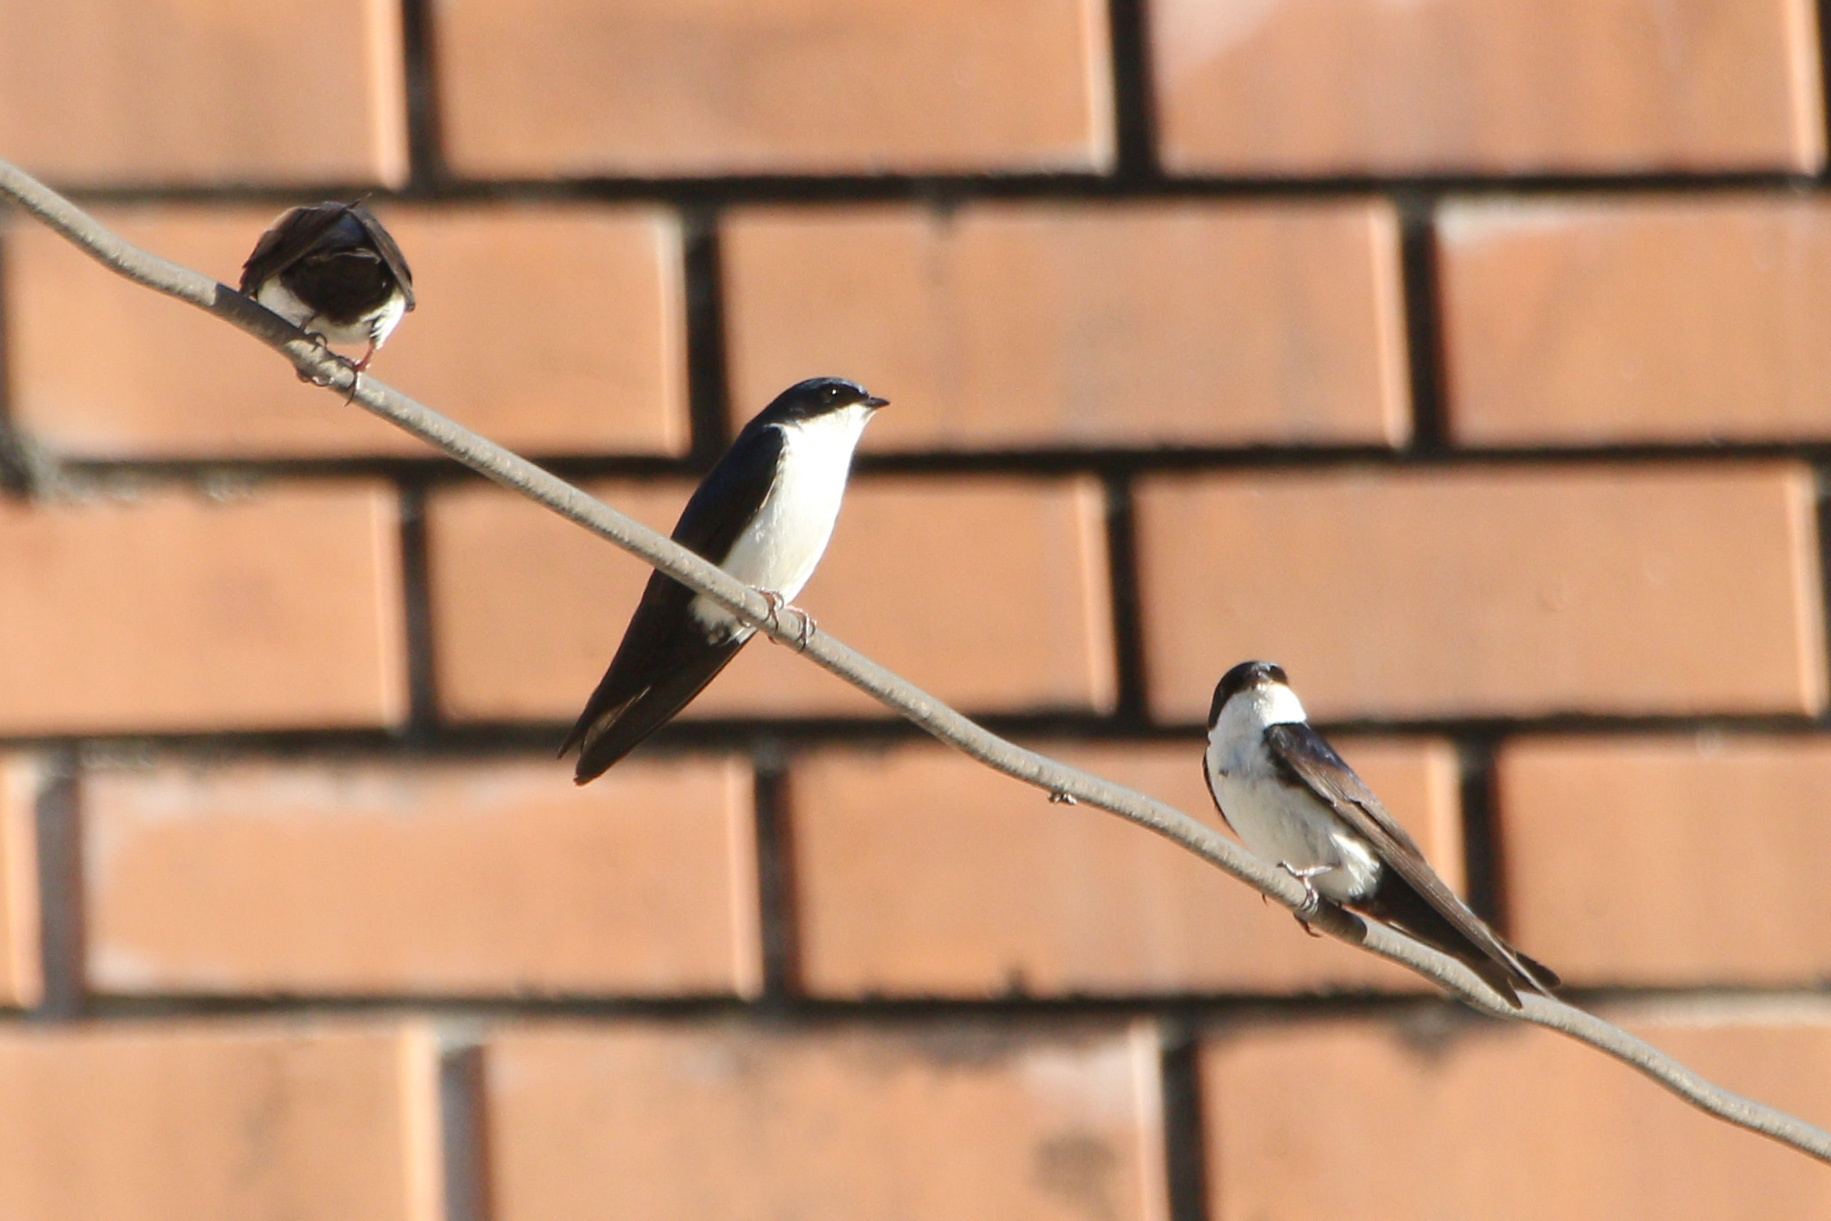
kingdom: Animalia
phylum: Chordata
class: Aves
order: Passeriformes
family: Hirundinidae
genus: Notiochelidon
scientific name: Notiochelidon cyanoleuca
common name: Blue-and-white swallow
